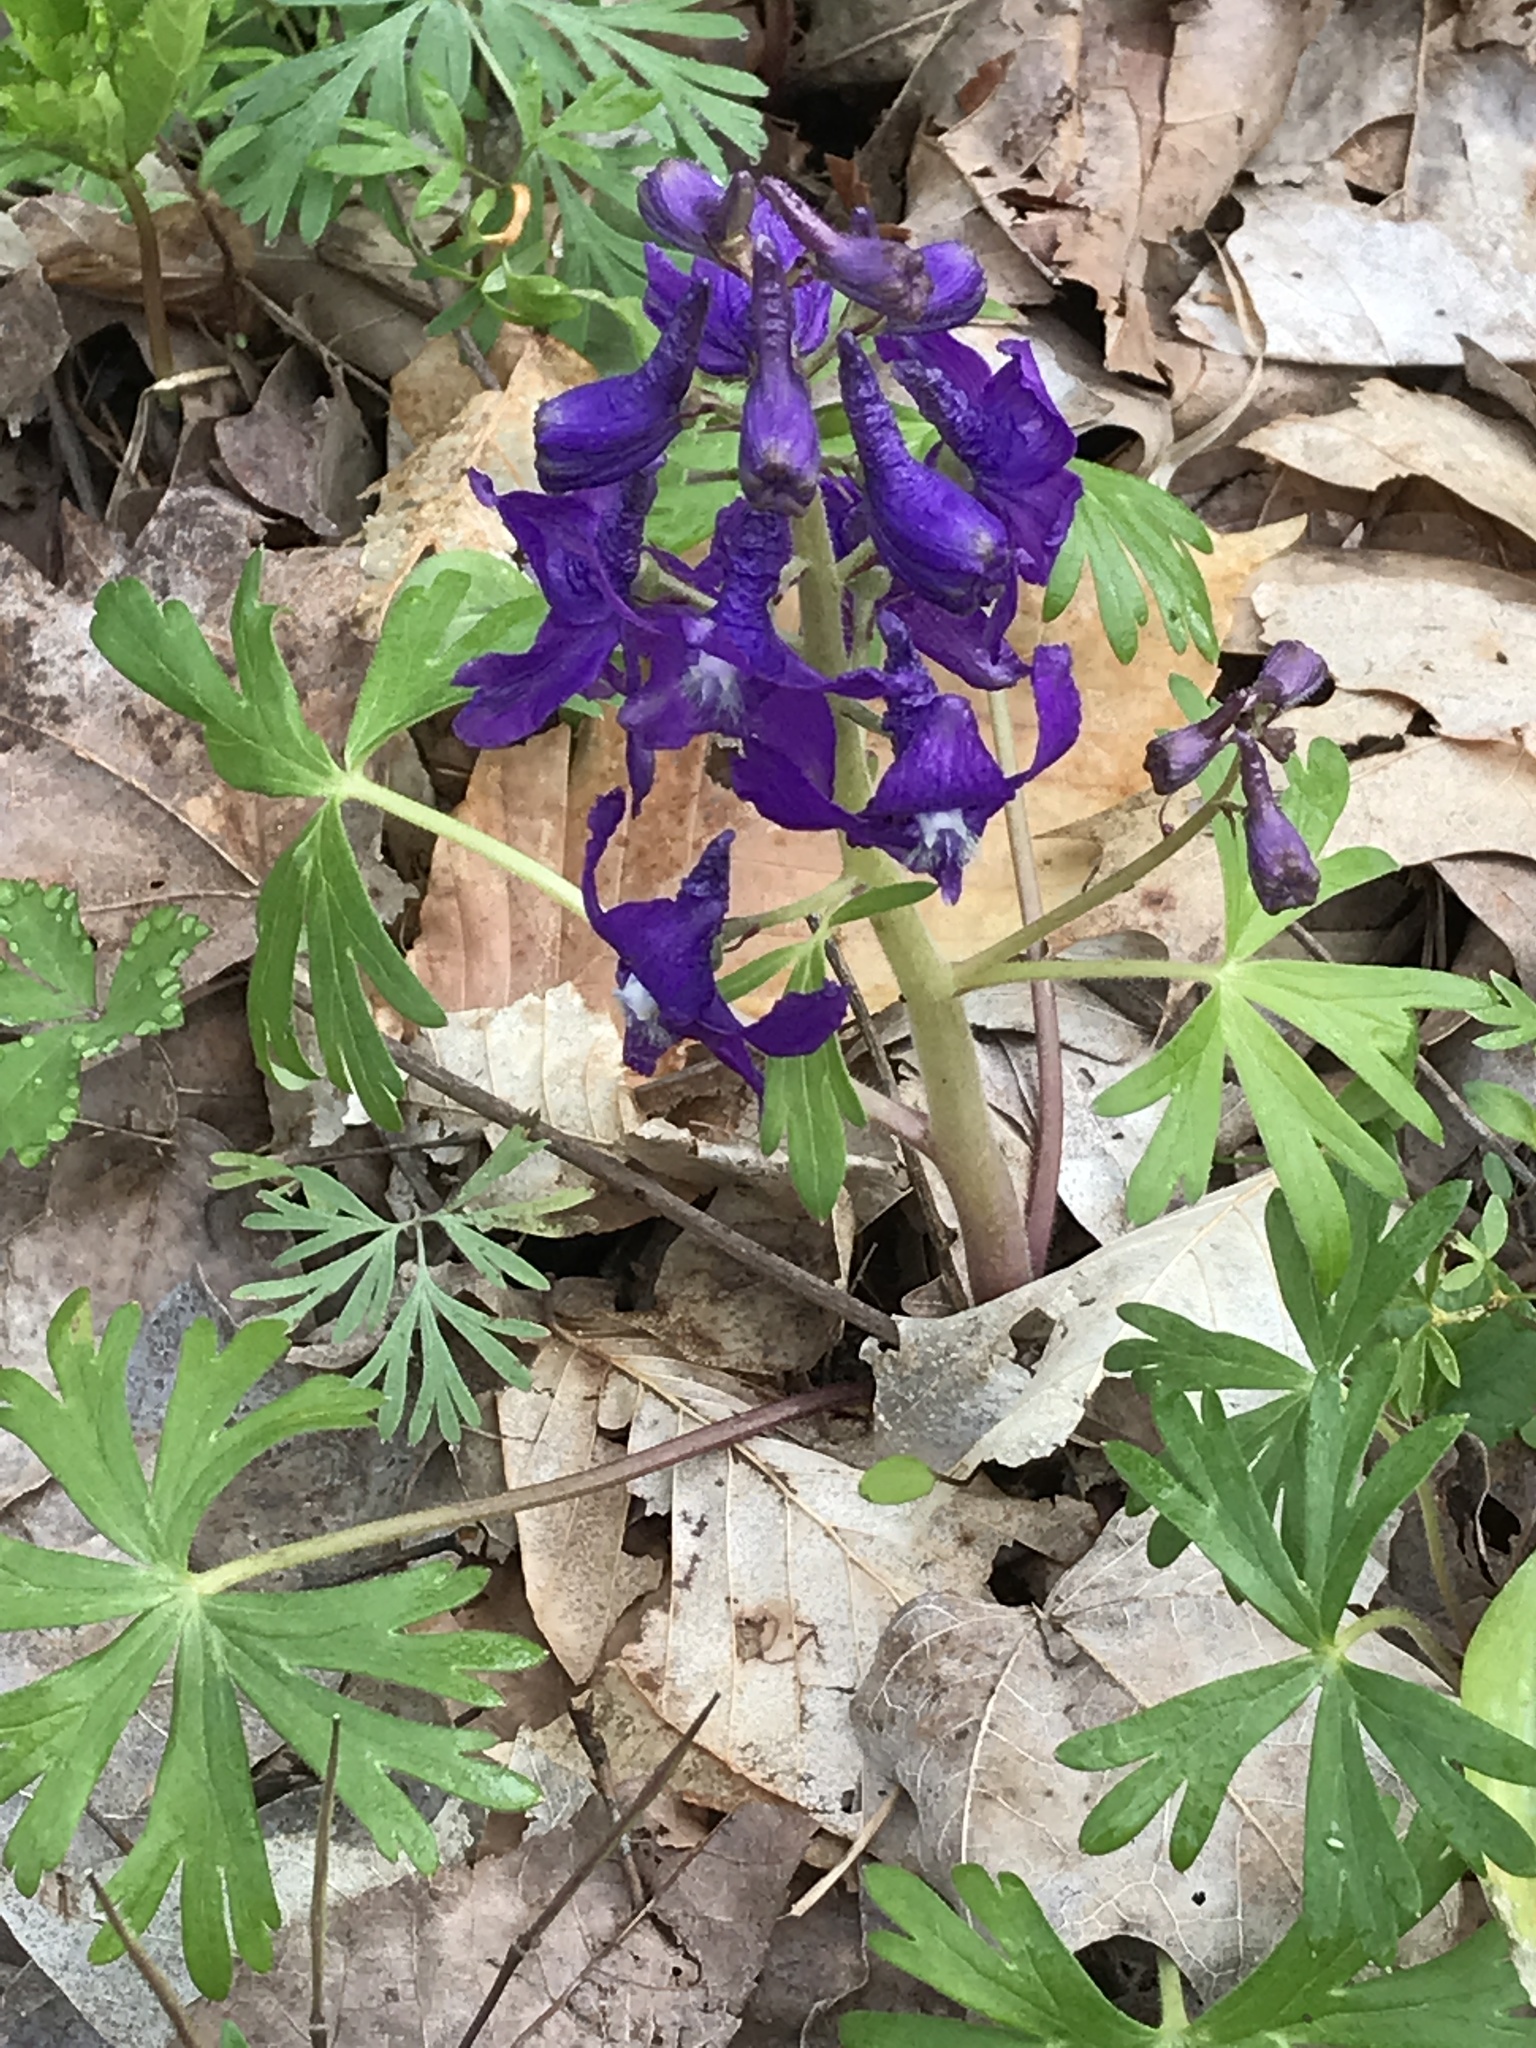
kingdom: Plantae
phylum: Tracheophyta
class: Magnoliopsida
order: Ranunculales
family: Ranunculaceae
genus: Delphinium
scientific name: Delphinium tricorne
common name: Dwarf larkspur
